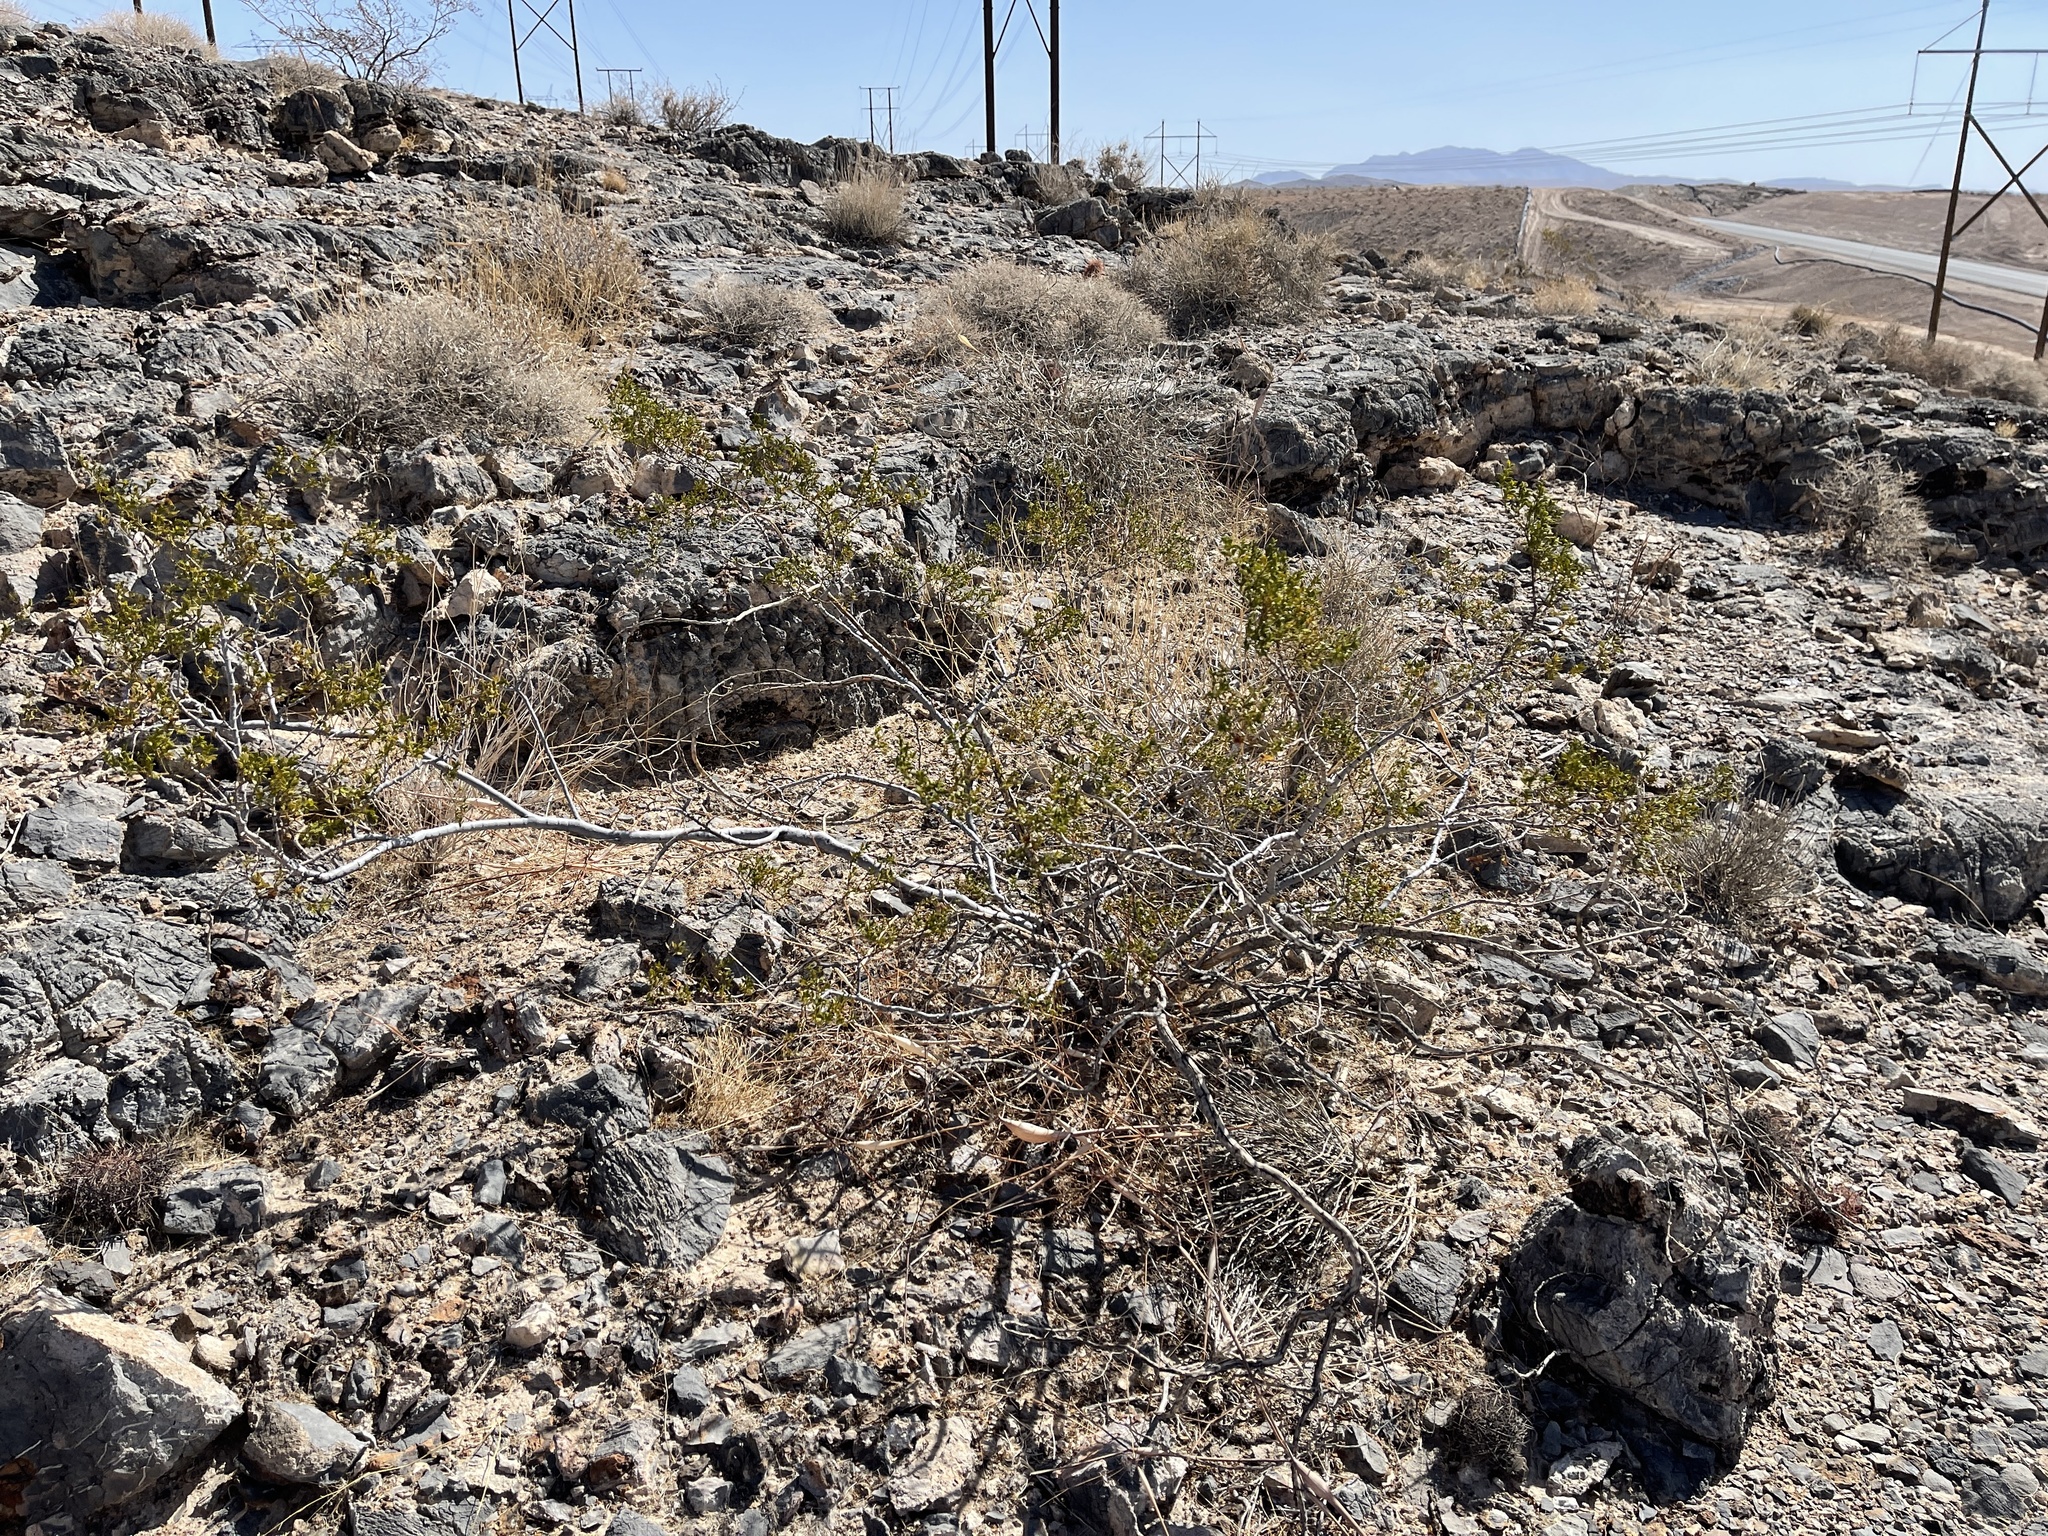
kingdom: Plantae
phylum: Tracheophyta
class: Magnoliopsida
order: Zygophyllales
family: Zygophyllaceae
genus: Larrea
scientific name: Larrea tridentata
